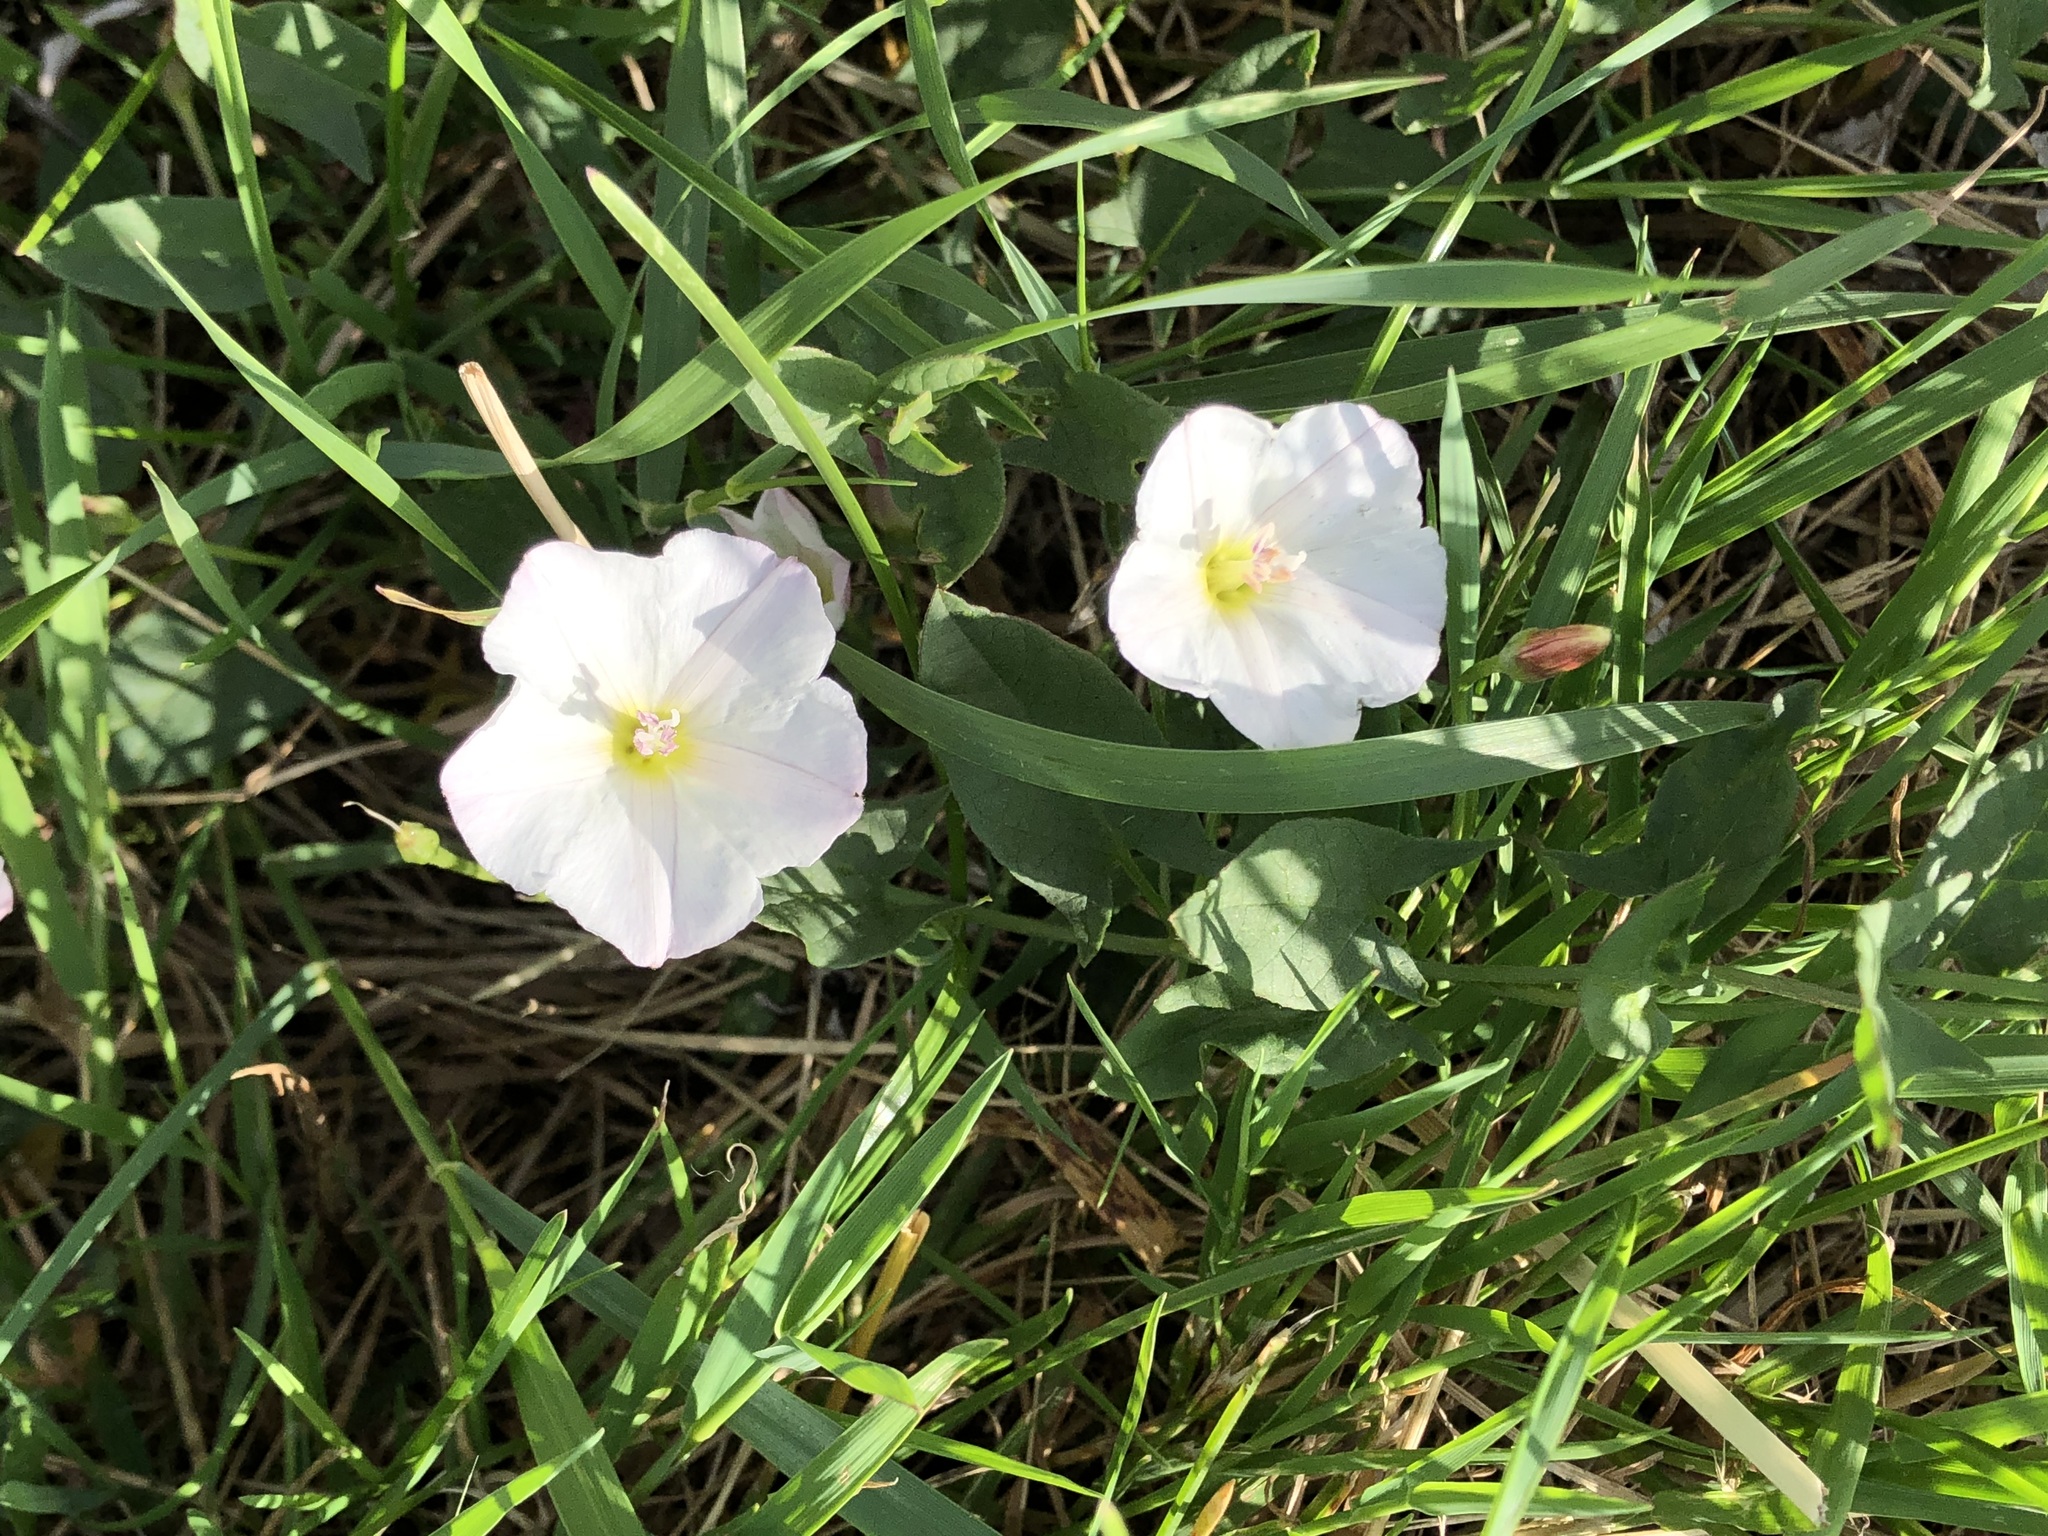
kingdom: Plantae
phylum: Tracheophyta
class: Magnoliopsida
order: Solanales
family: Convolvulaceae
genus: Convolvulus
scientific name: Convolvulus arvensis
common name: Field bindweed
